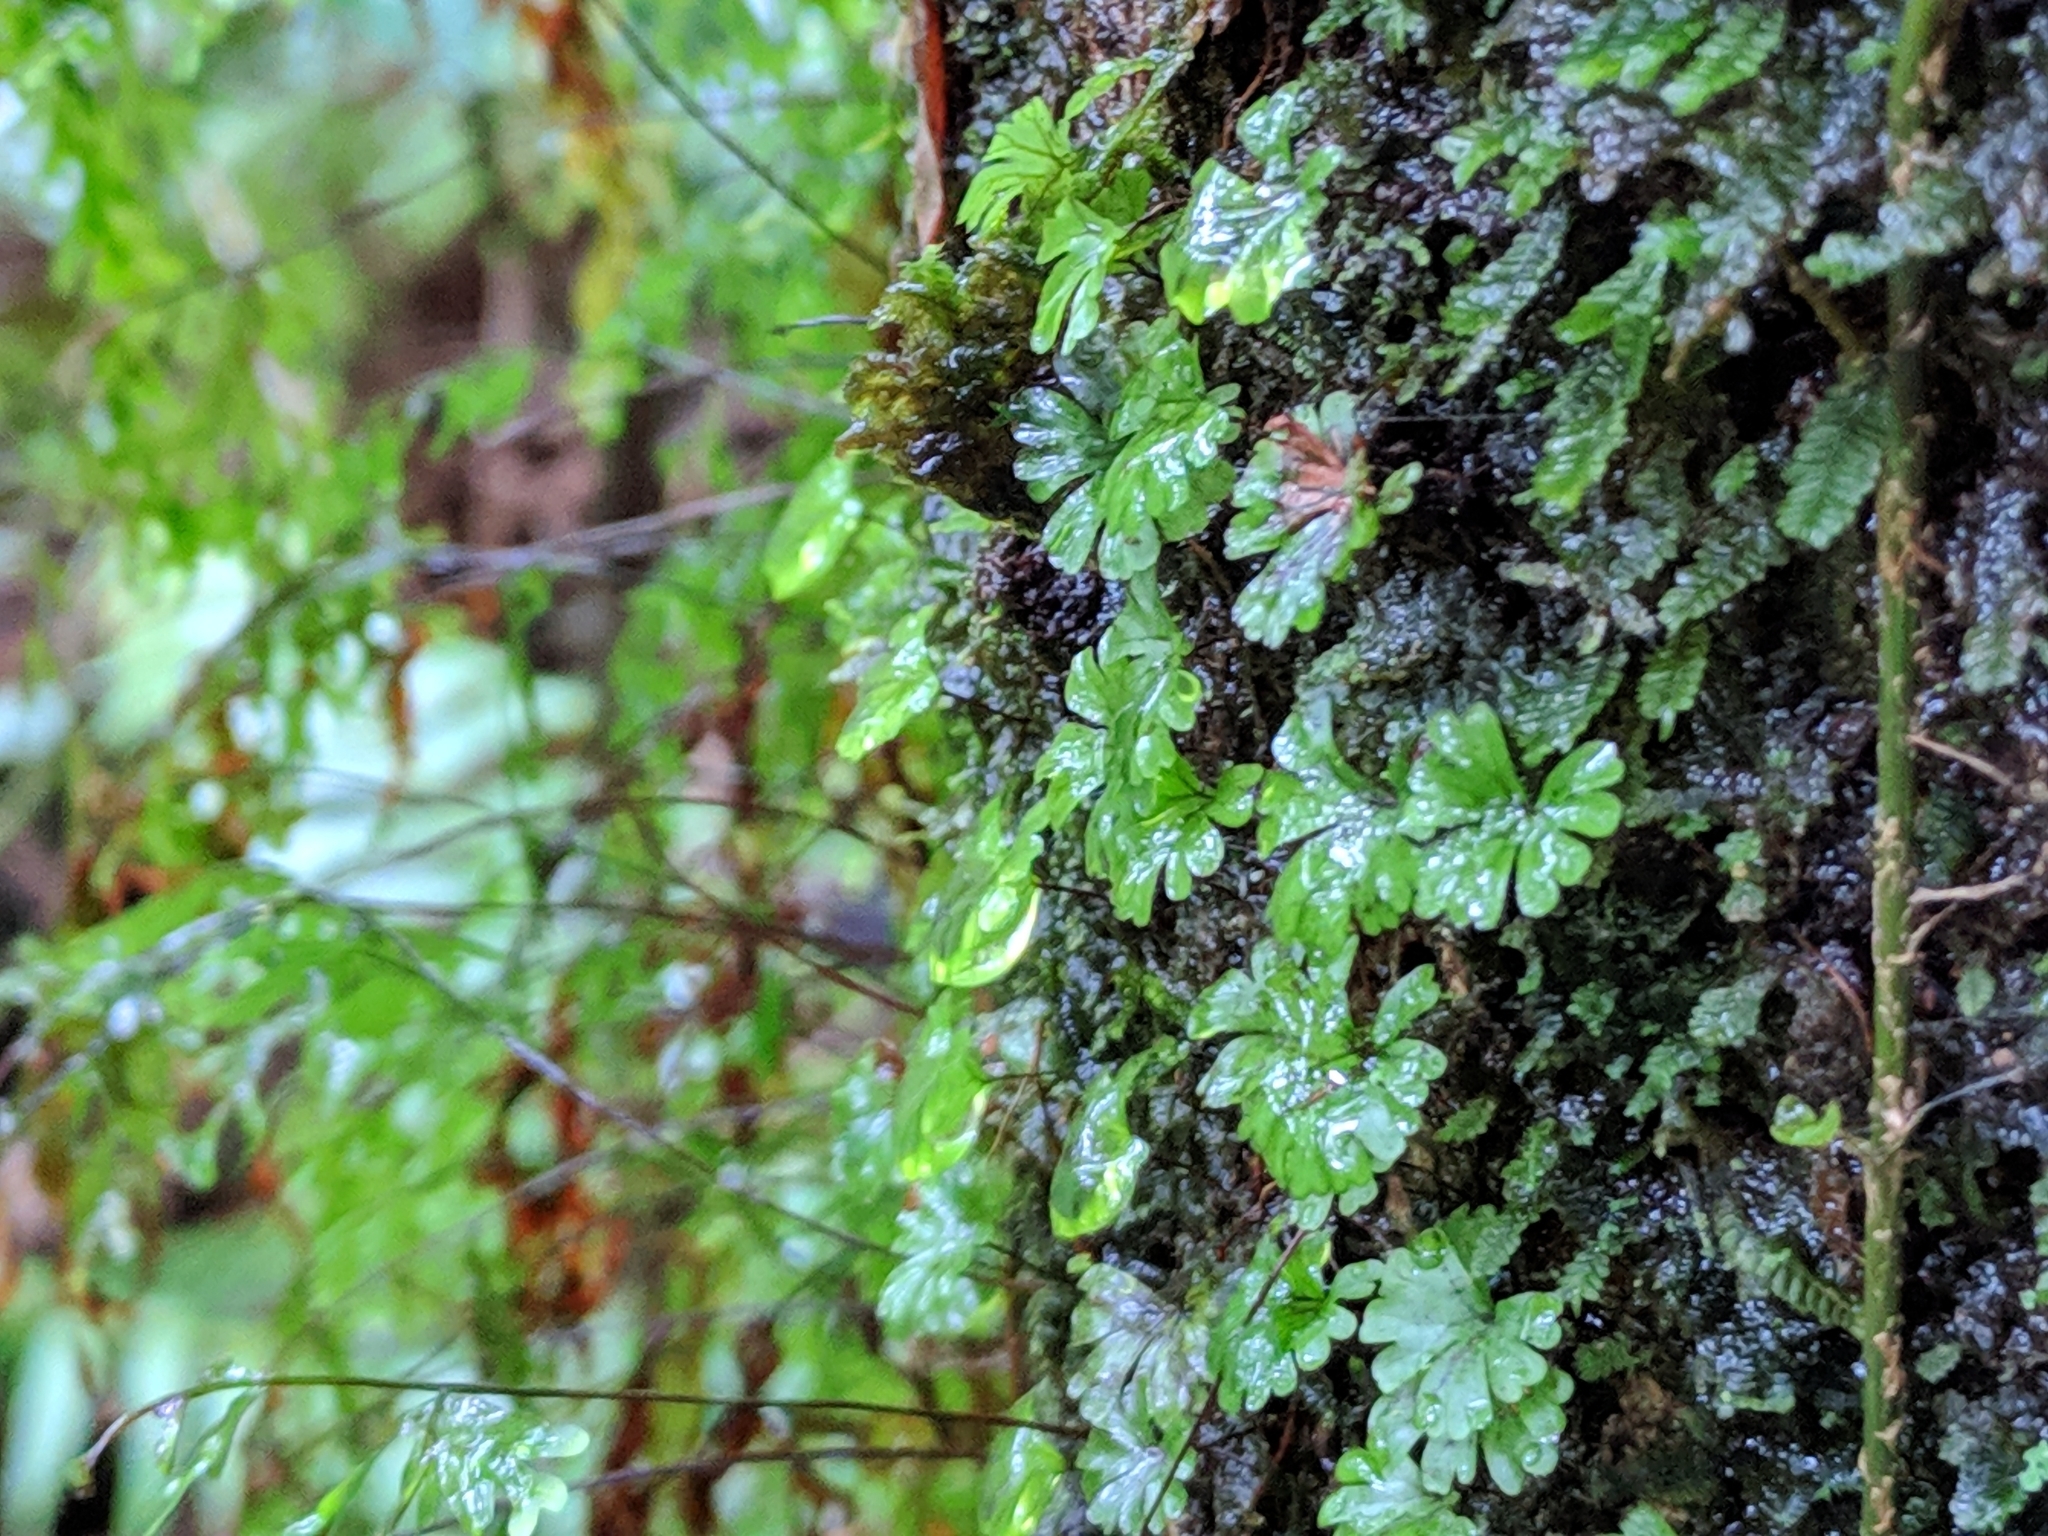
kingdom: Plantae
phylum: Tracheophyta
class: Polypodiopsida
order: Hymenophyllales
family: Hymenophyllaceae
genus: Hymenophyllum
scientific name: Hymenophyllum sibthorpioides
